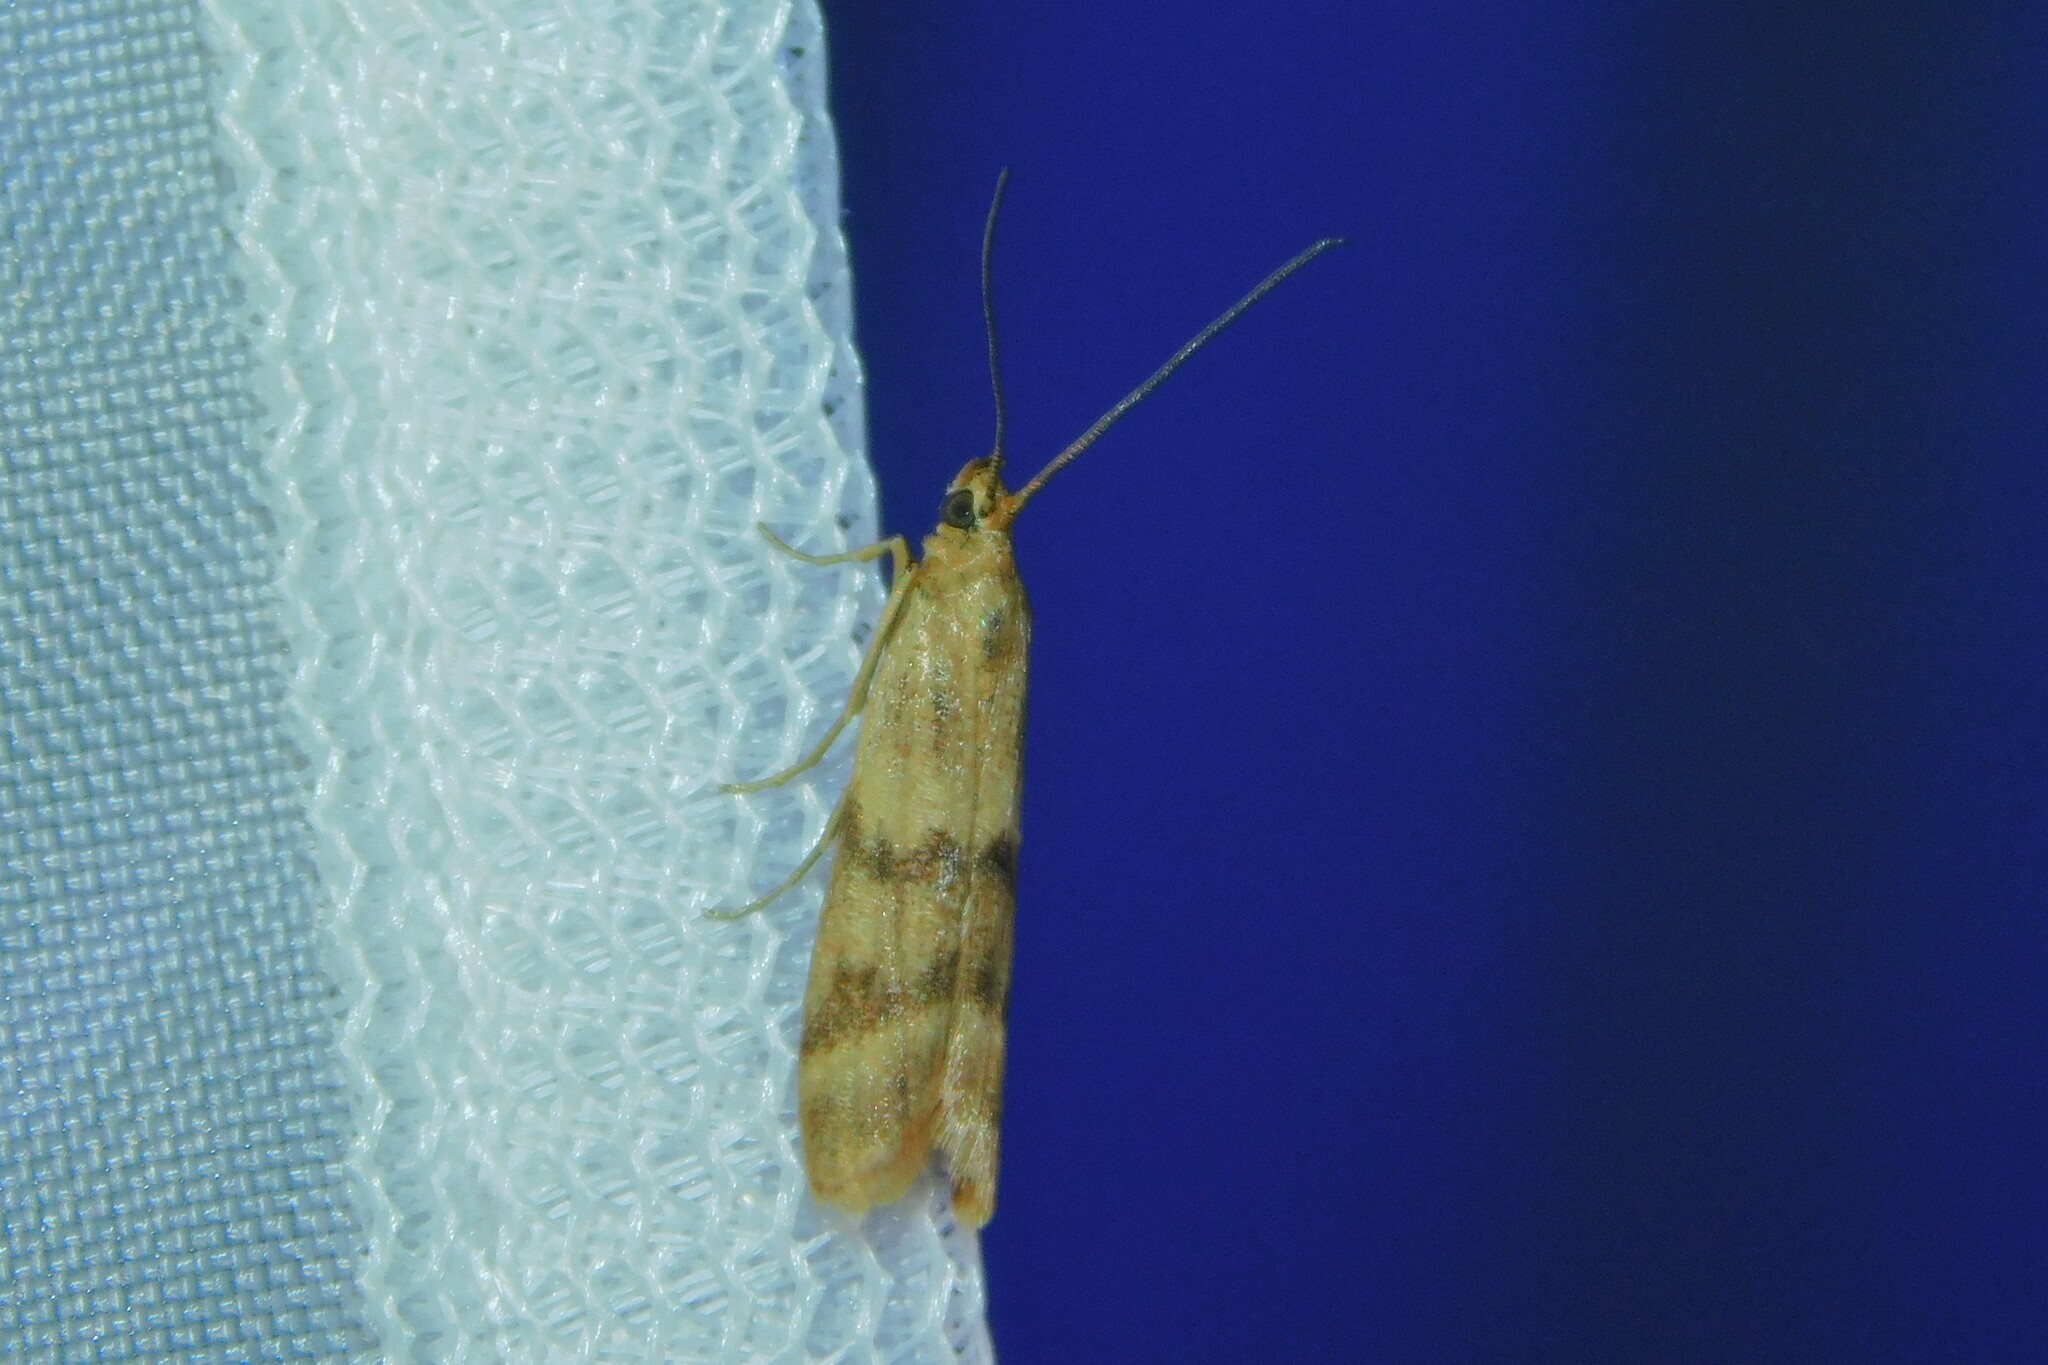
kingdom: Animalia
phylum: Arthropoda
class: Insecta
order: Lepidoptera
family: Pyralidae
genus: Homoeosoma
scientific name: Homoeosoma sinuella
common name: Twin-barred knot-horn
